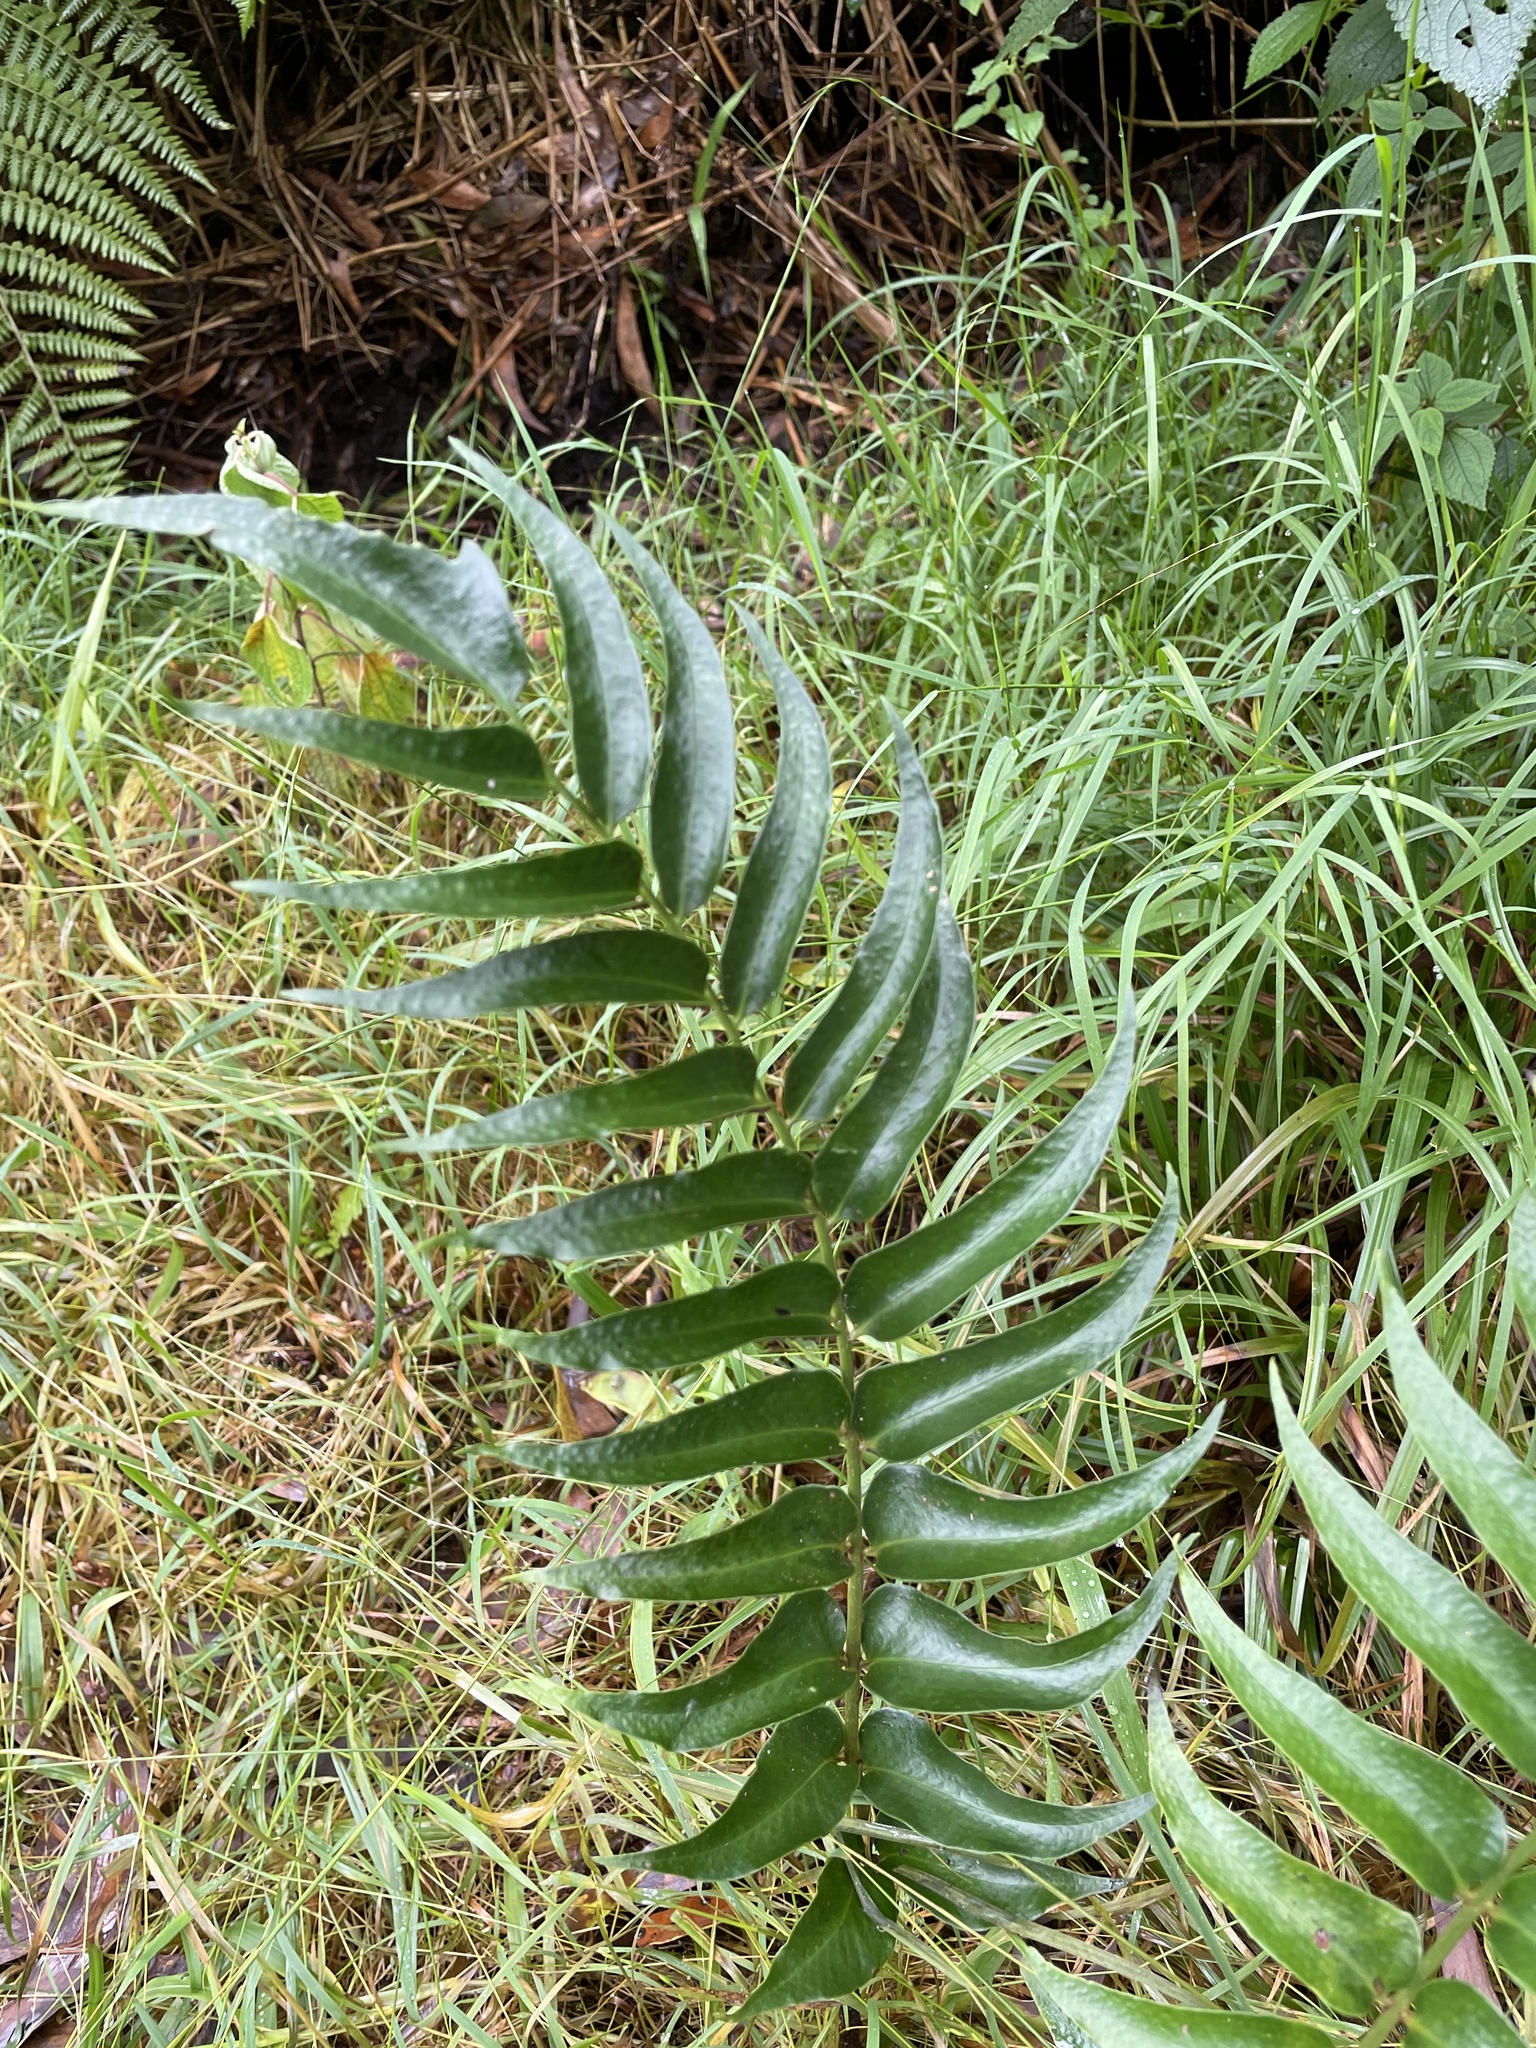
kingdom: Plantae
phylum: Tracheophyta
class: Polypodiopsida
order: Polypodiales
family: Dryopteridaceae
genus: Cyrtomium
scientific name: Cyrtomium falcatum
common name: House holly-fern
